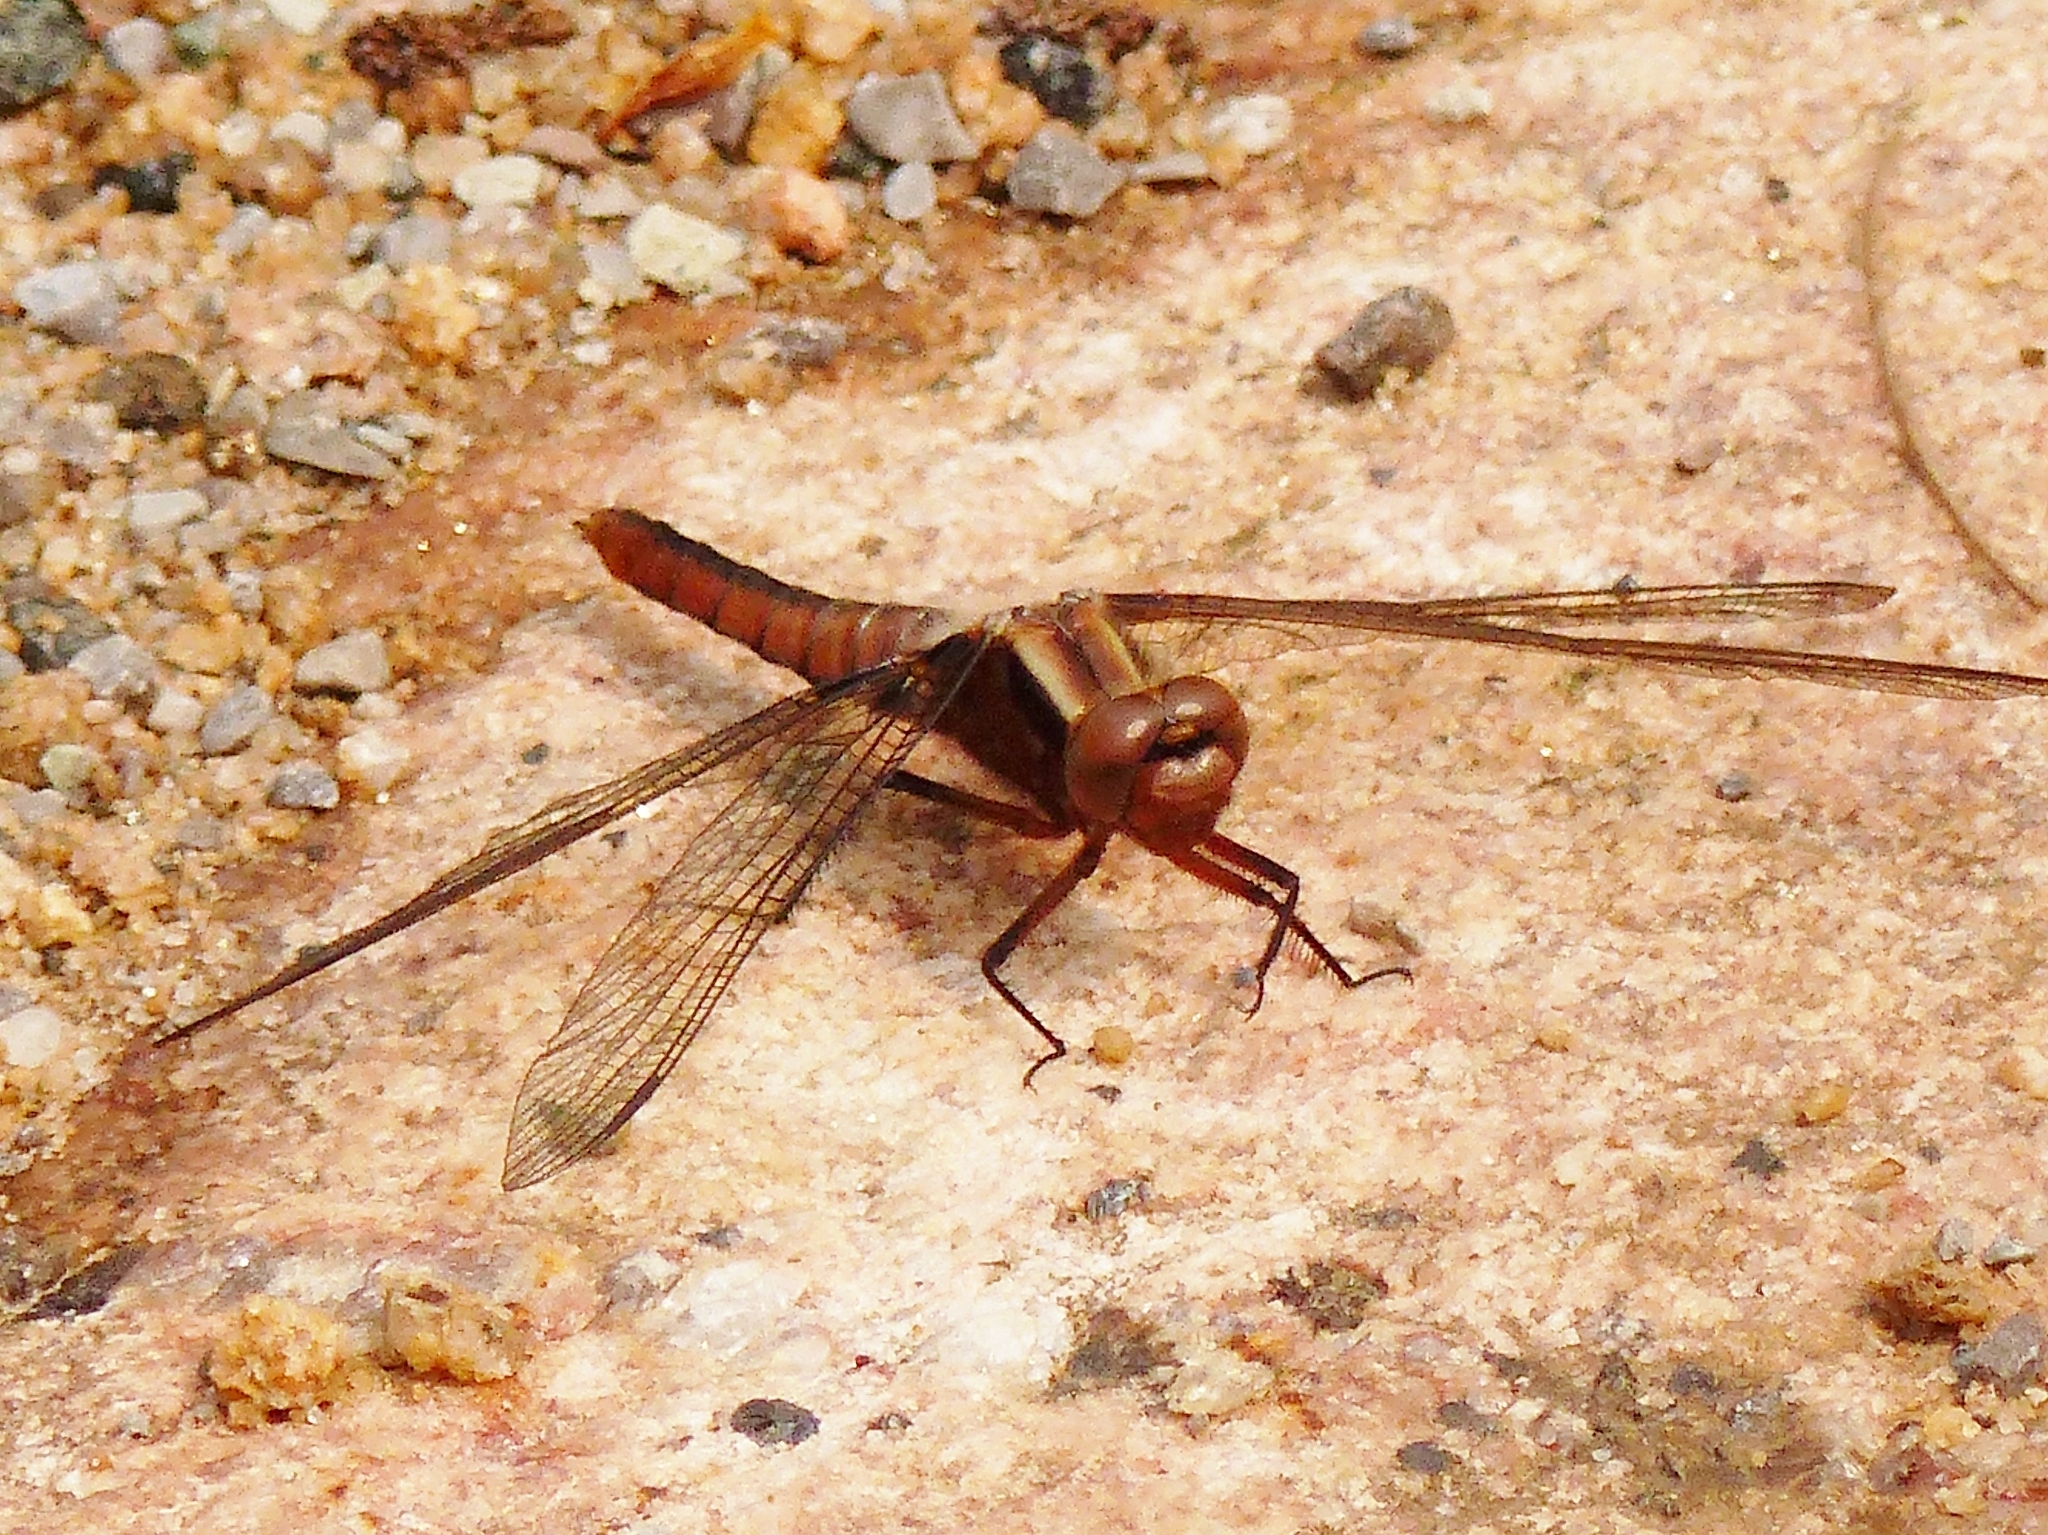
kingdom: Animalia
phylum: Arthropoda
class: Insecta
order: Odonata
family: Libellulidae
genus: Ladona
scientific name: Ladona julia
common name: Chalk-fronted corporal
